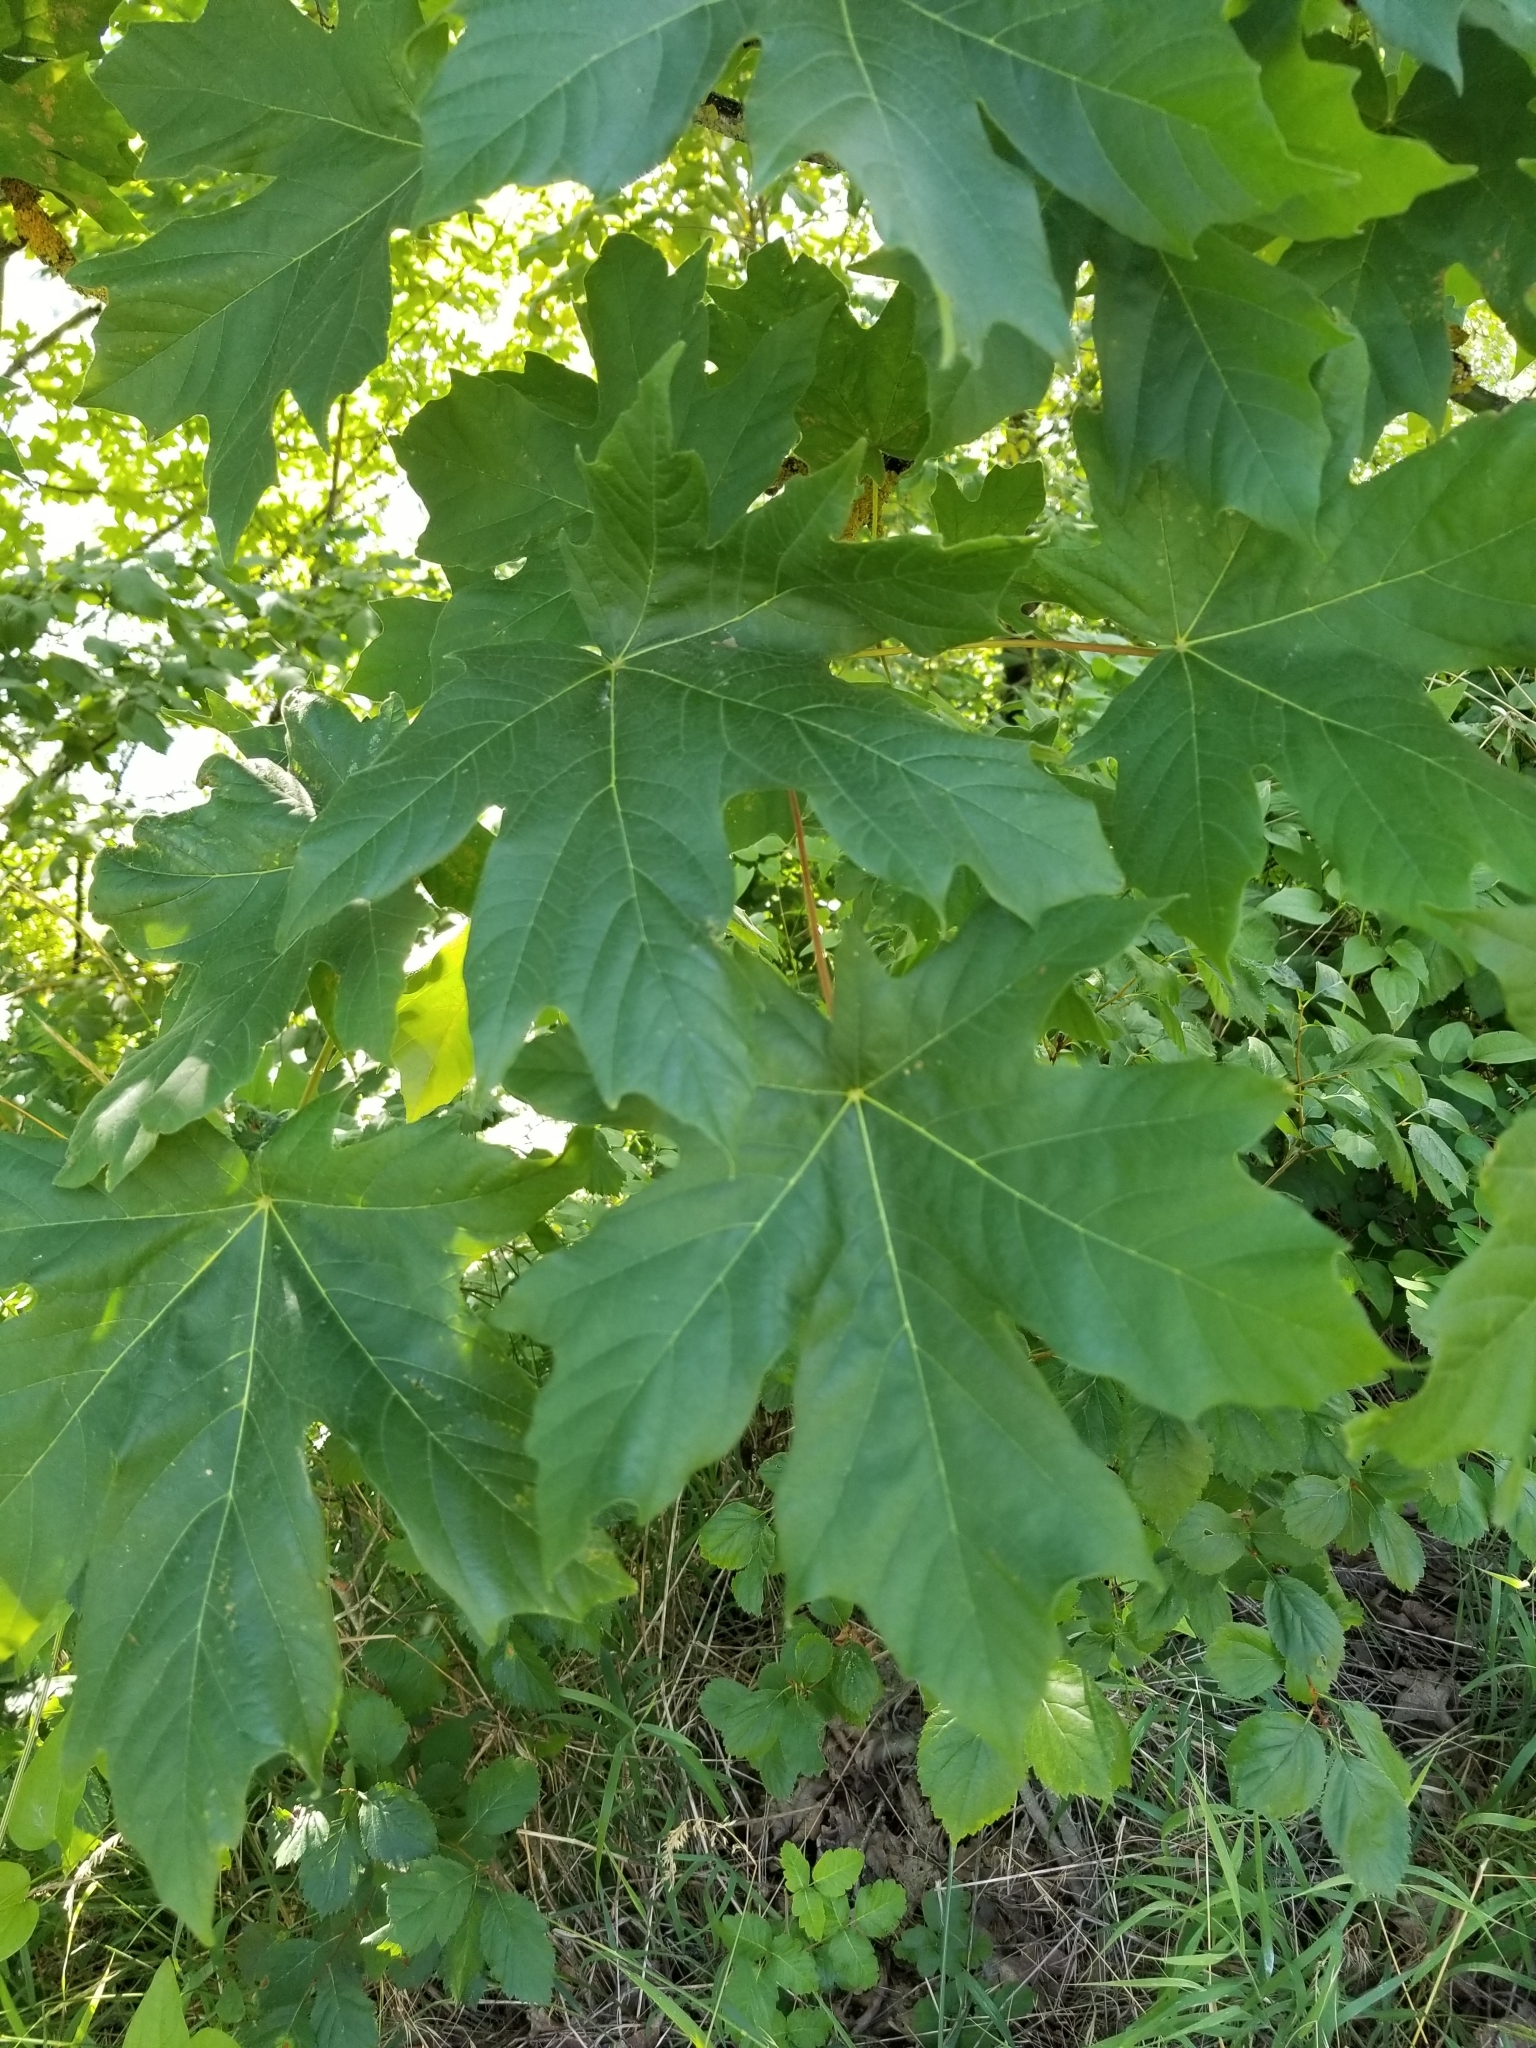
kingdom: Plantae
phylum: Tracheophyta
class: Magnoliopsida
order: Sapindales
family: Sapindaceae
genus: Acer
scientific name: Acer macrophyllum
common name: Oregon maple
